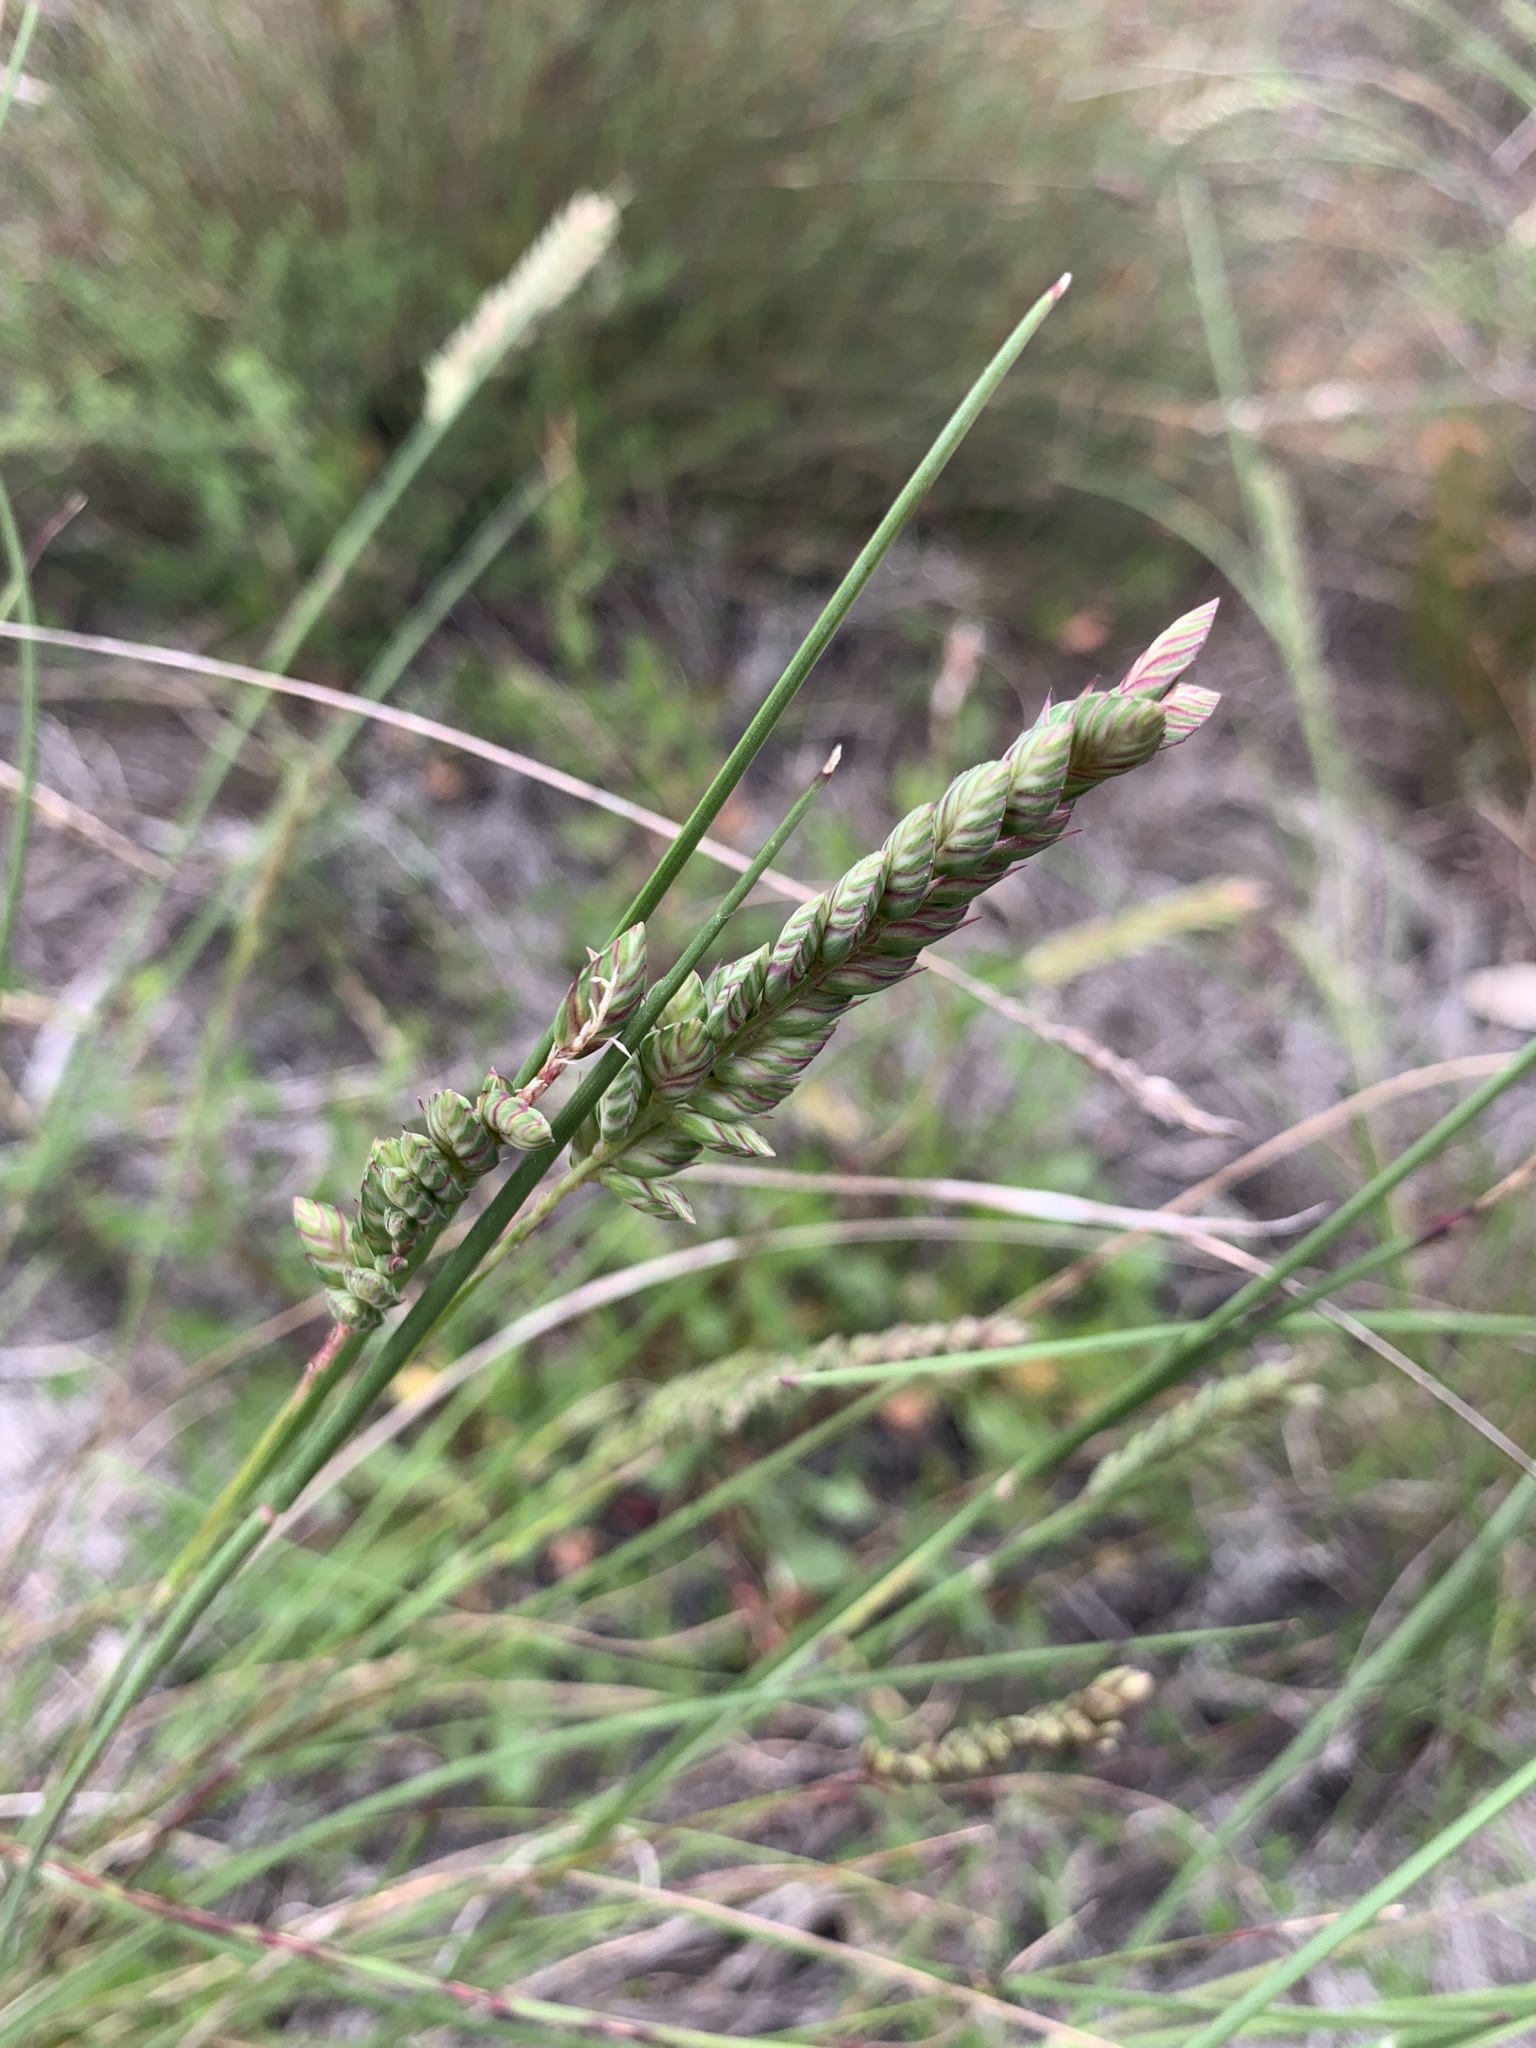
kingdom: Plantae
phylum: Tracheophyta
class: Liliopsida
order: Poales
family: Poaceae
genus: Tribolium
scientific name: Tribolium uniolae
